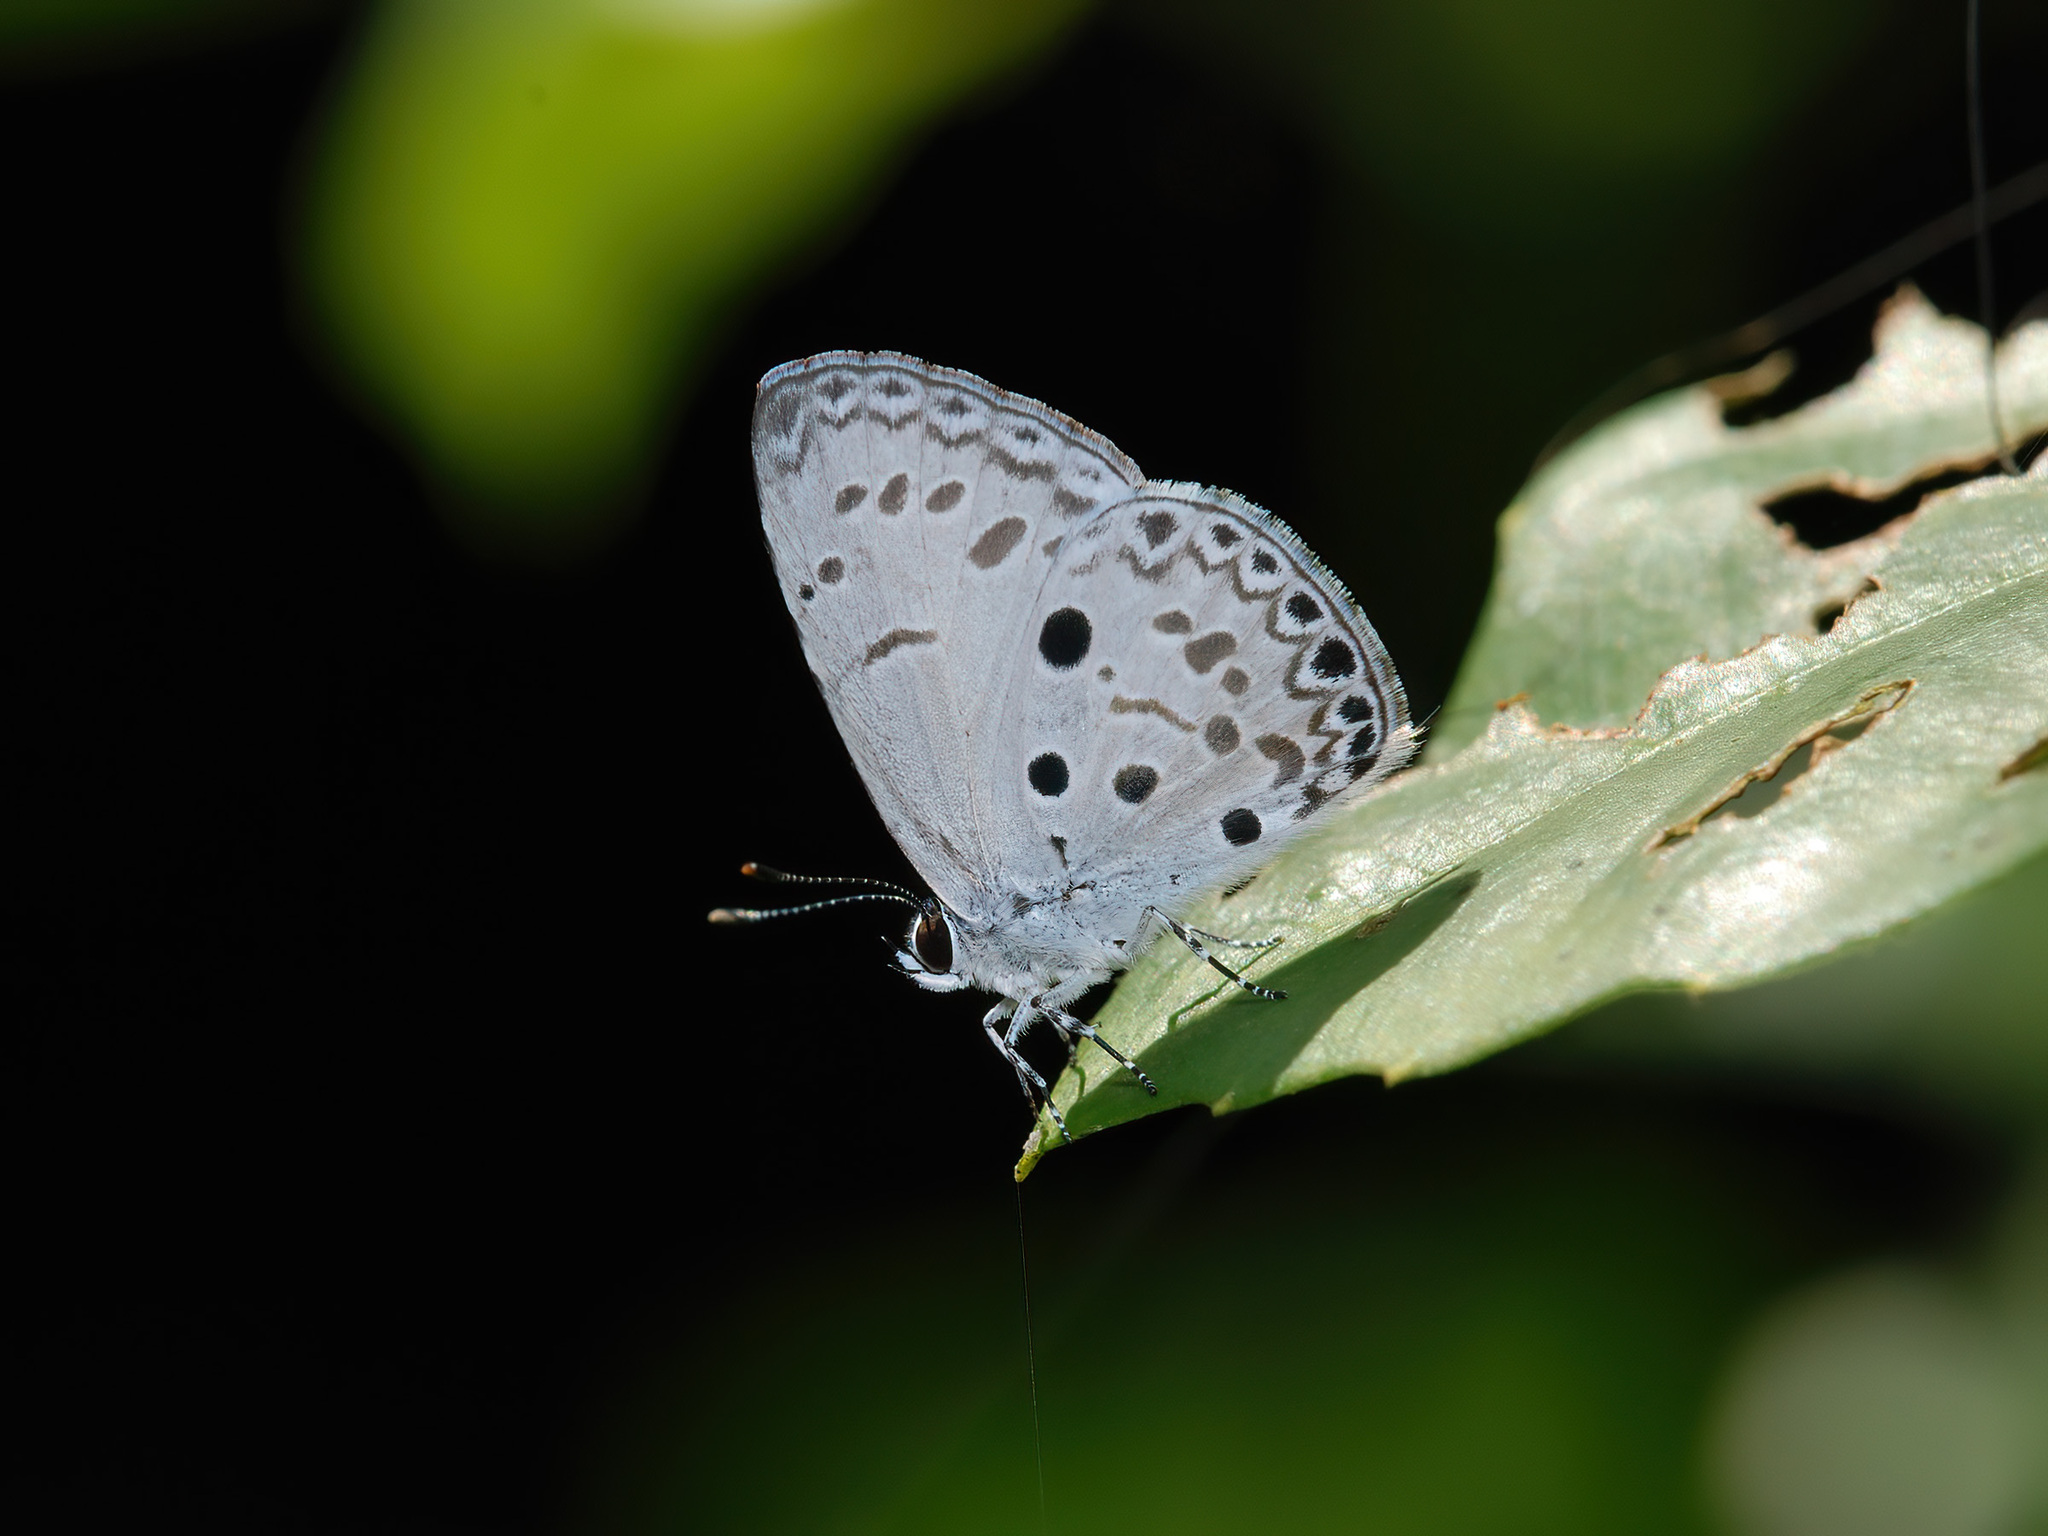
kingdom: Animalia
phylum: Arthropoda
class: Insecta
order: Lepidoptera
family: Lycaenidae
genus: Acytolepis
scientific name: Acytolepis puspa
